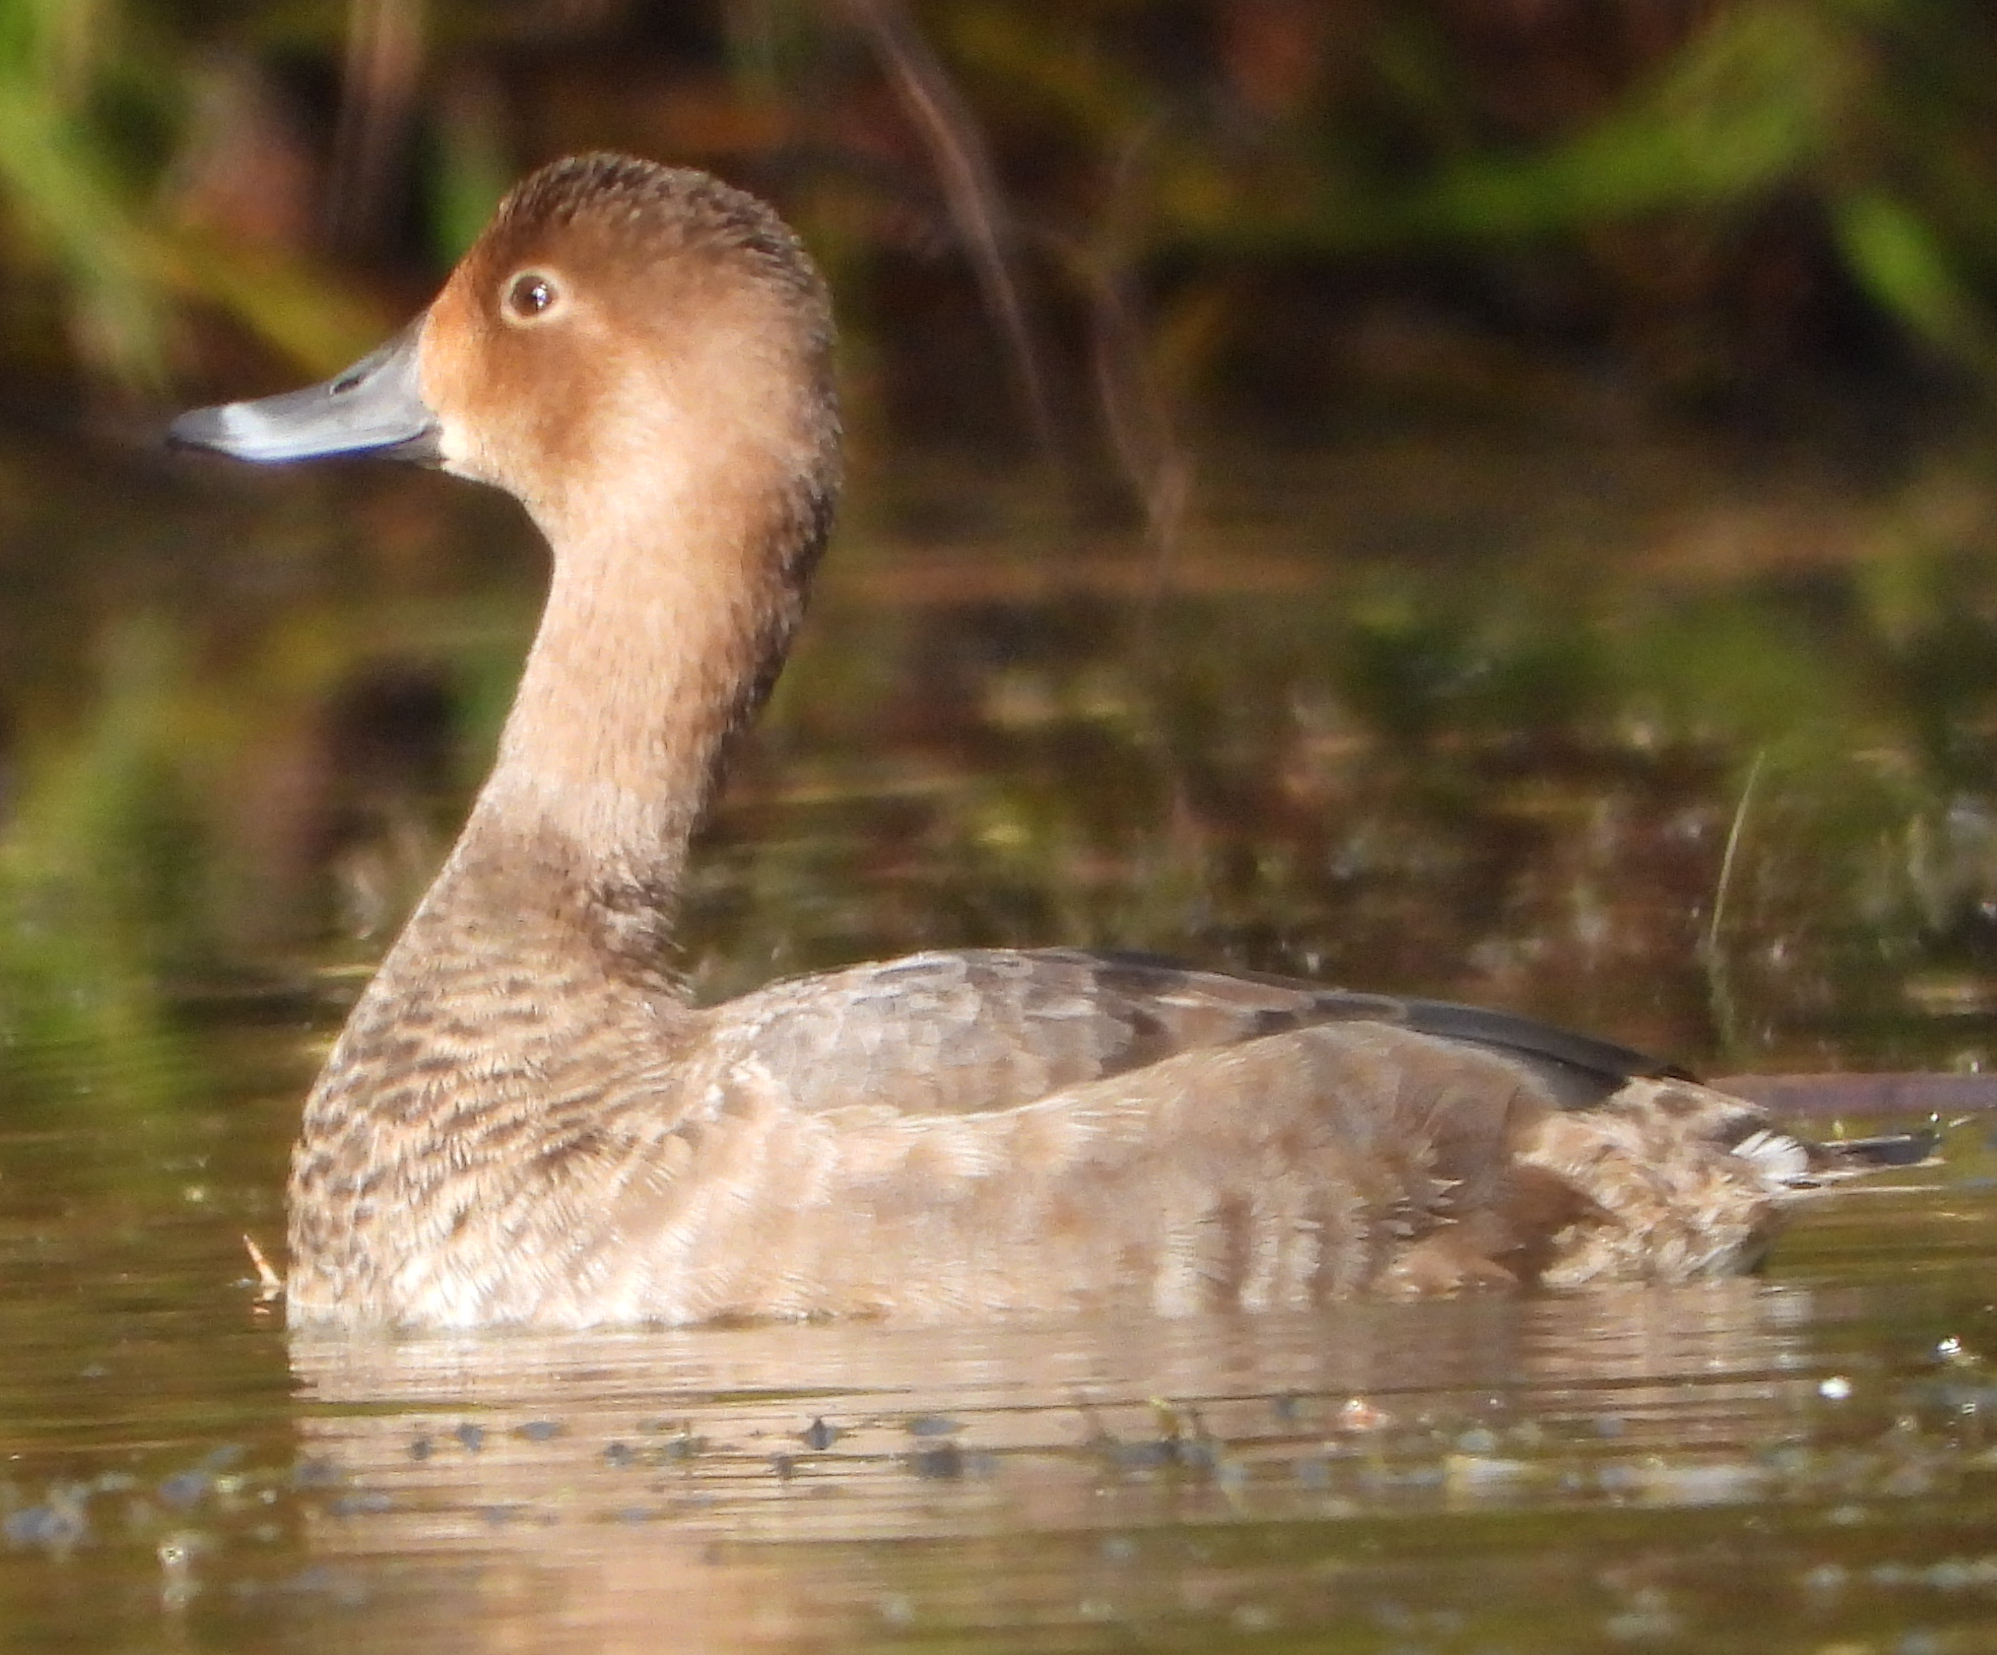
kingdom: Animalia
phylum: Chordata
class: Aves
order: Anseriformes
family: Anatidae
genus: Aythya
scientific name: Aythya americana
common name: Redhead
